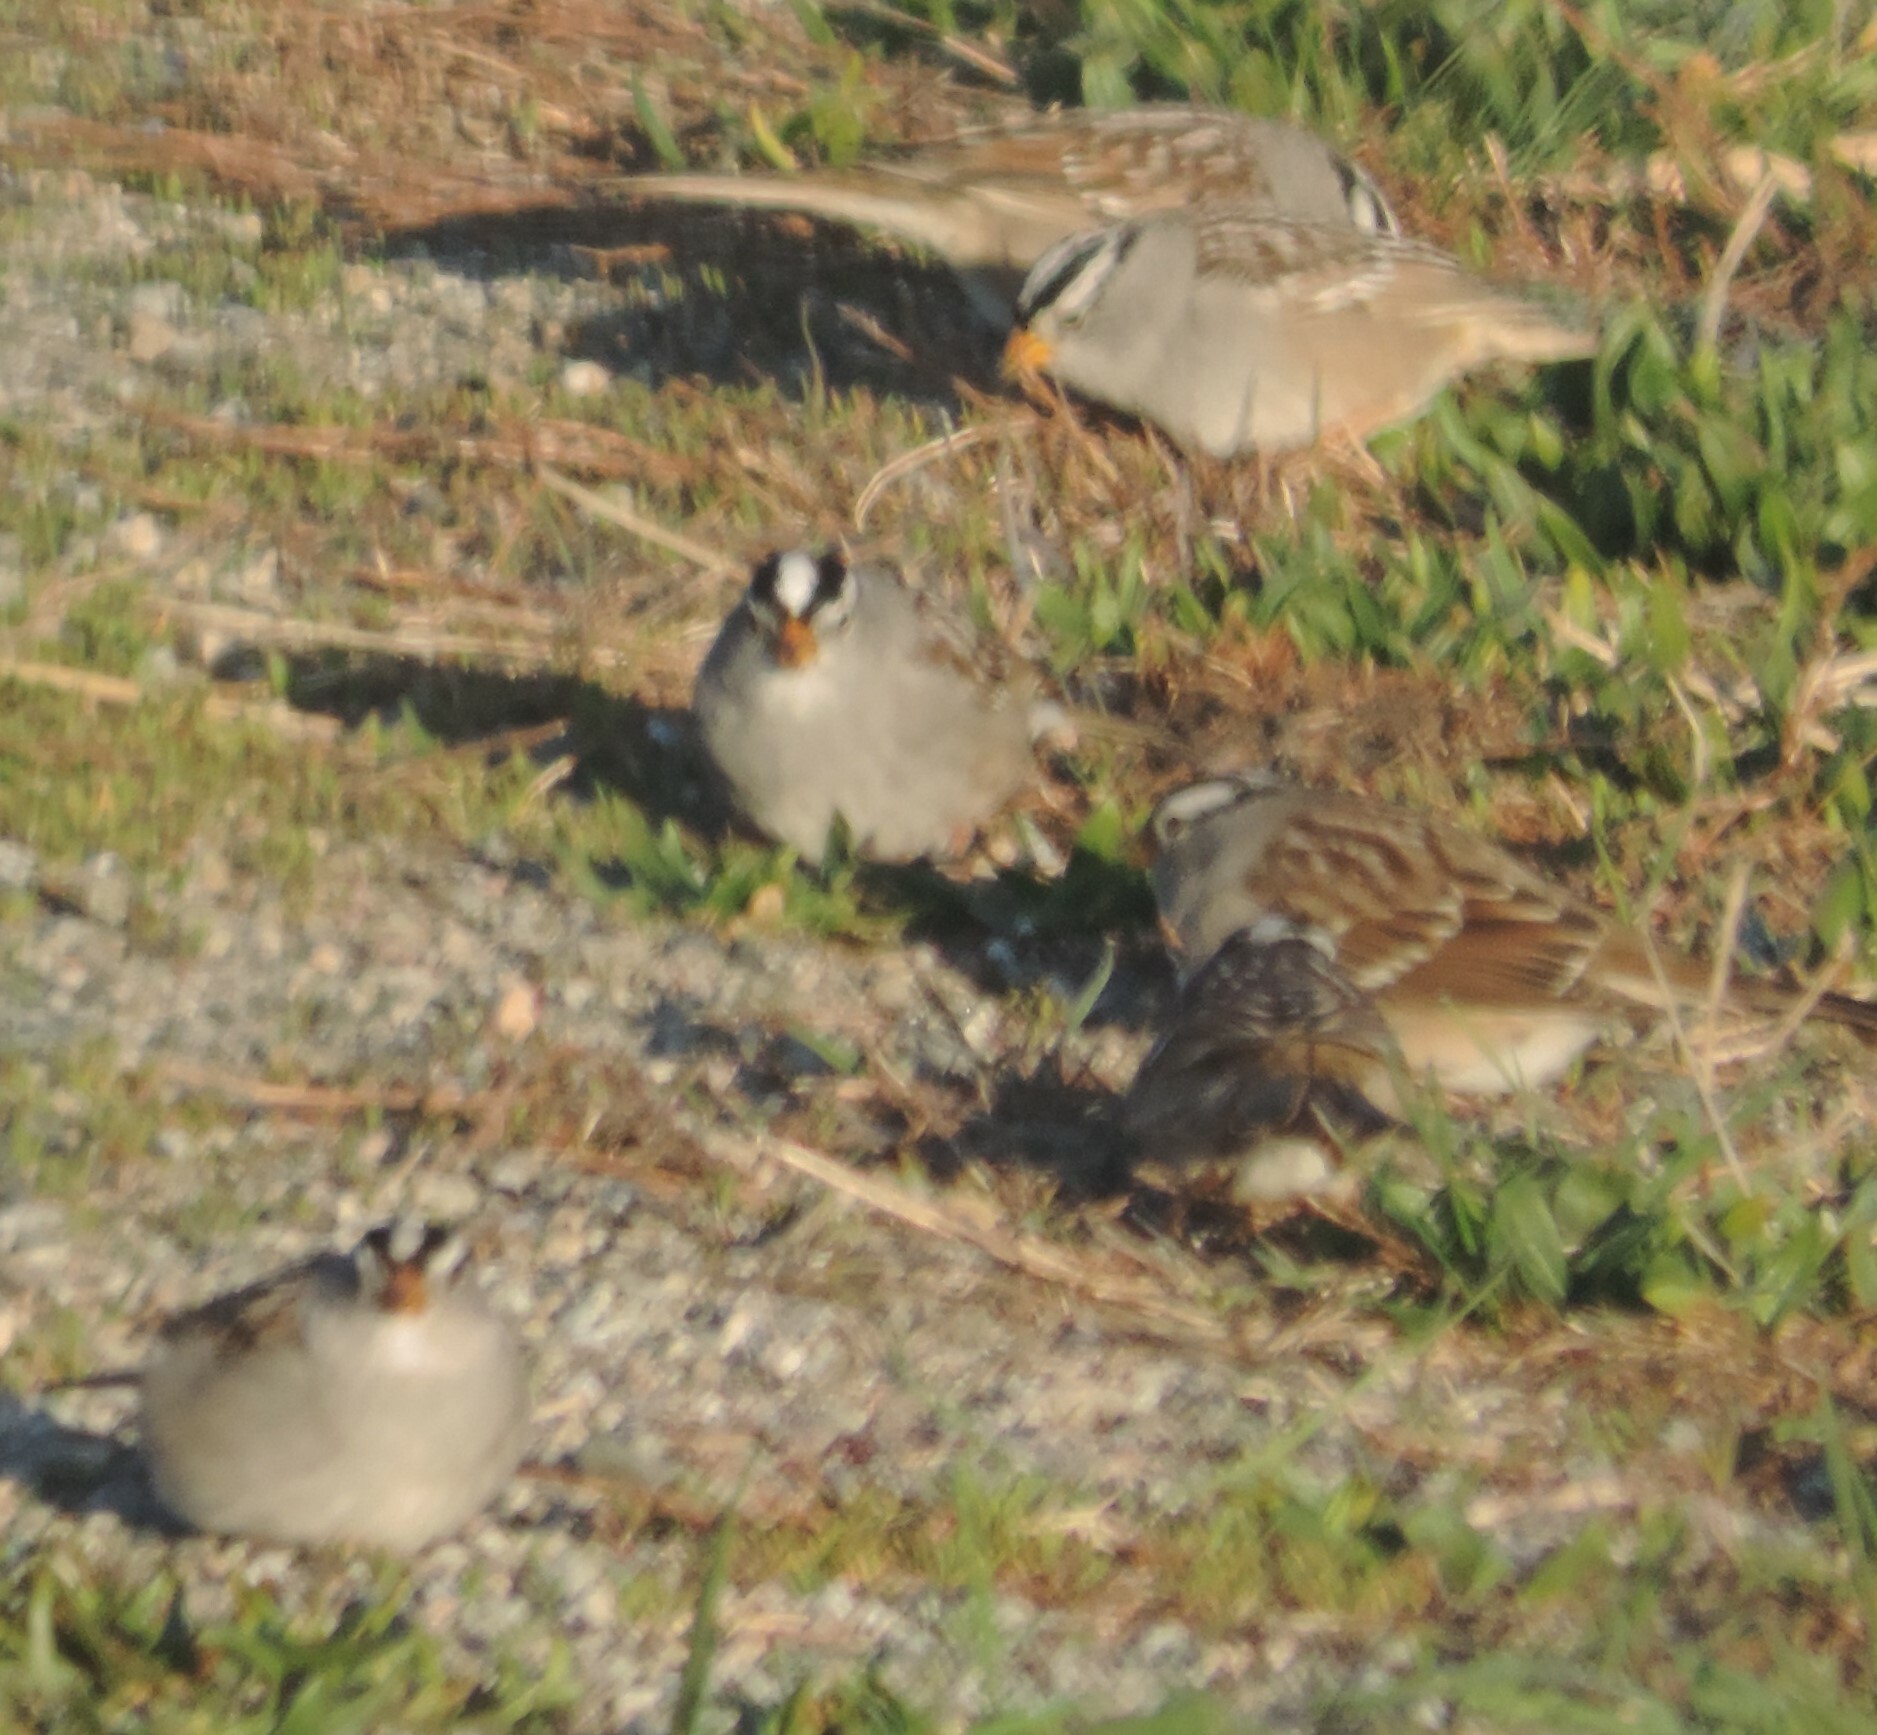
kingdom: Animalia
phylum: Chordata
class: Aves
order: Passeriformes
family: Passerellidae
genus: Zonotrichia
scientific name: Zonotrichia leucophrys
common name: White-crowned sparrow
